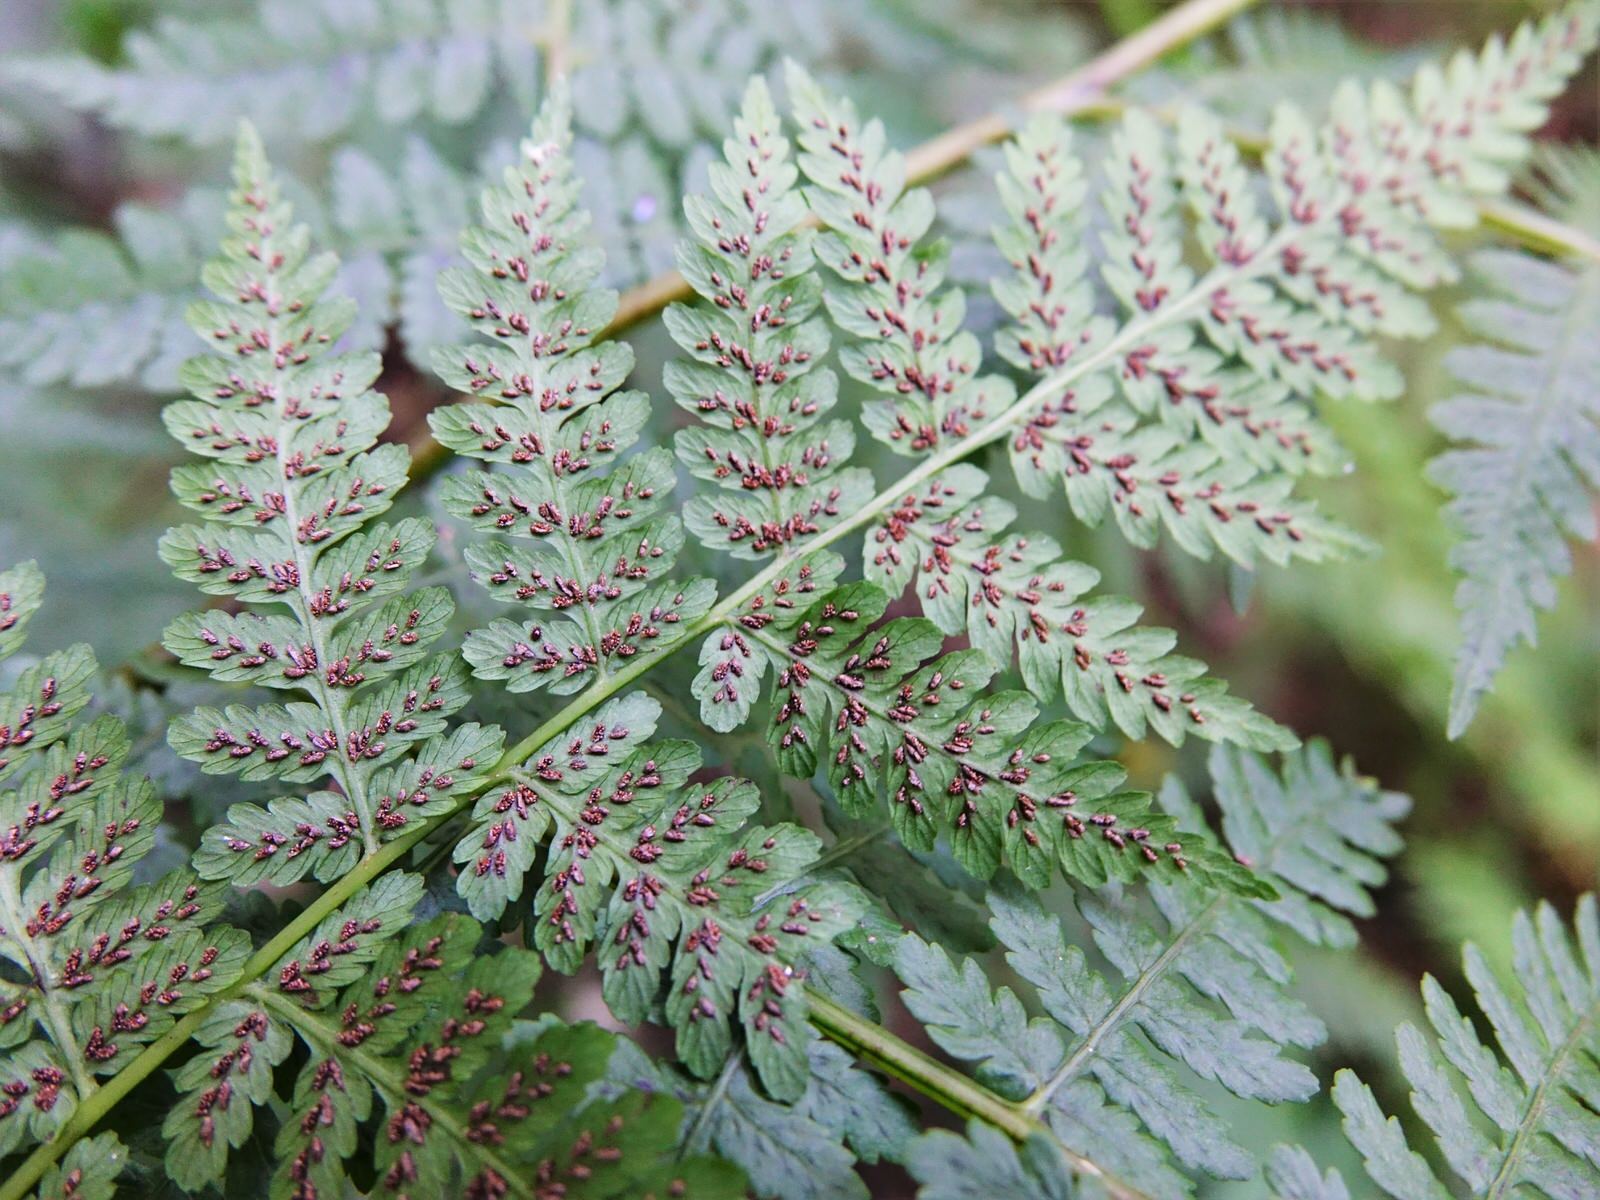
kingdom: Plantae
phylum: Tracheophyta
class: Polypodiopsida
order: Polypodiales
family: Athyriaceae
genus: Diplazium
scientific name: Diplazium australe
